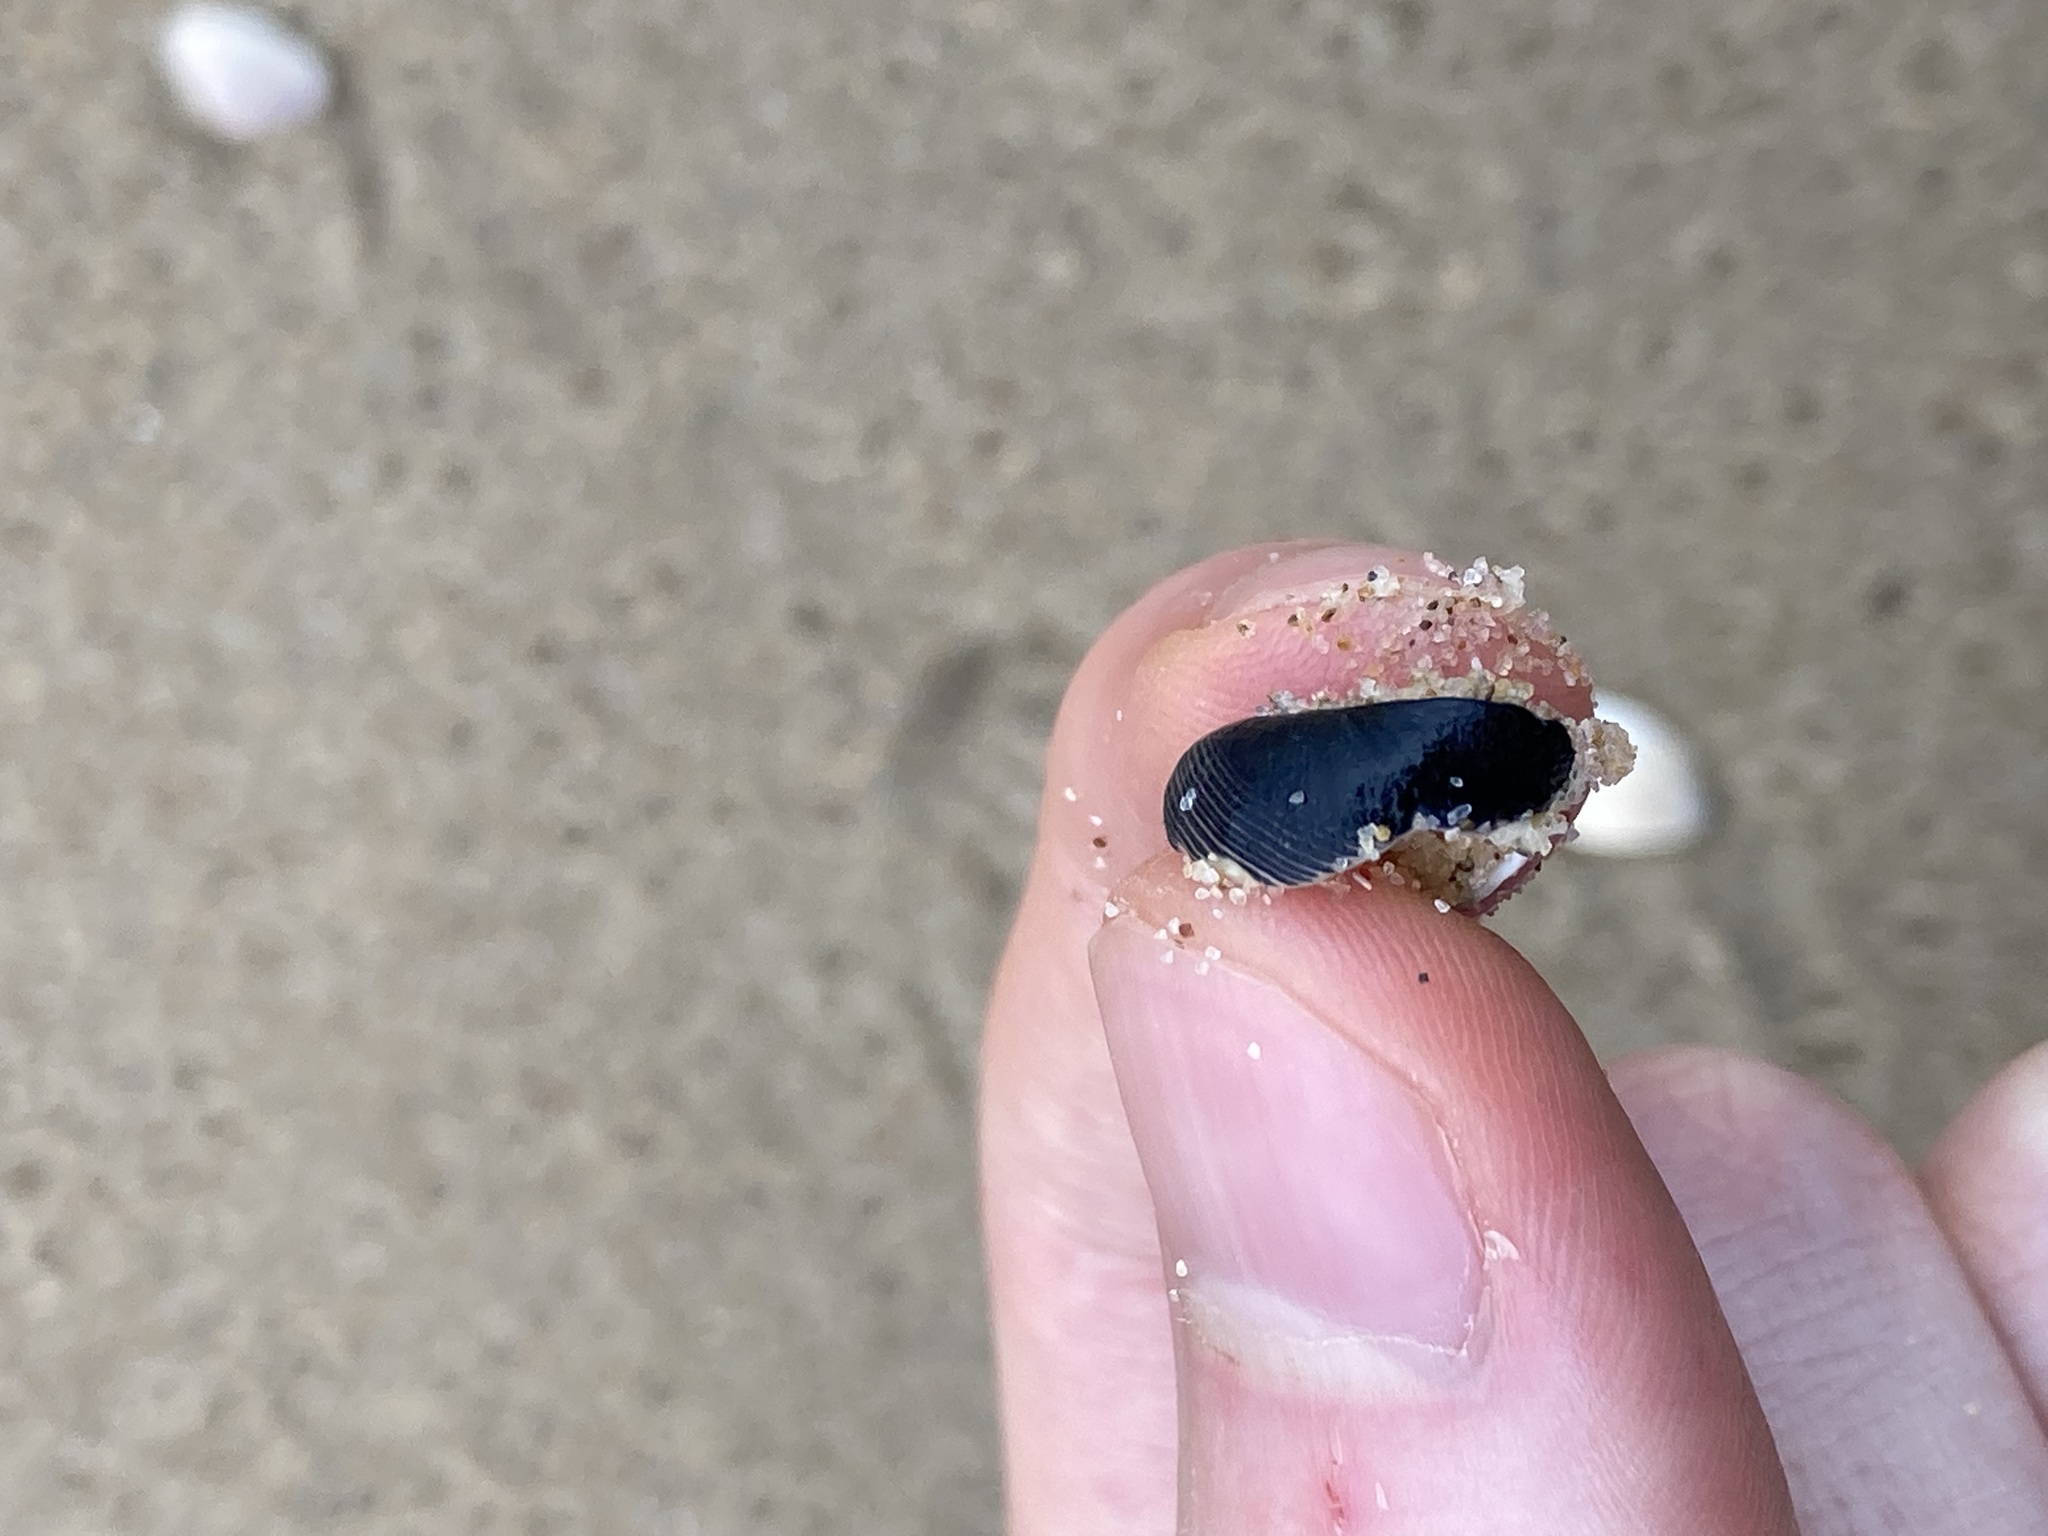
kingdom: Animalia
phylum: Mollusca
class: Gastropoda
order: Cycloneritida
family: Neritidae
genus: Nerita
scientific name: Nerita melanotragus
